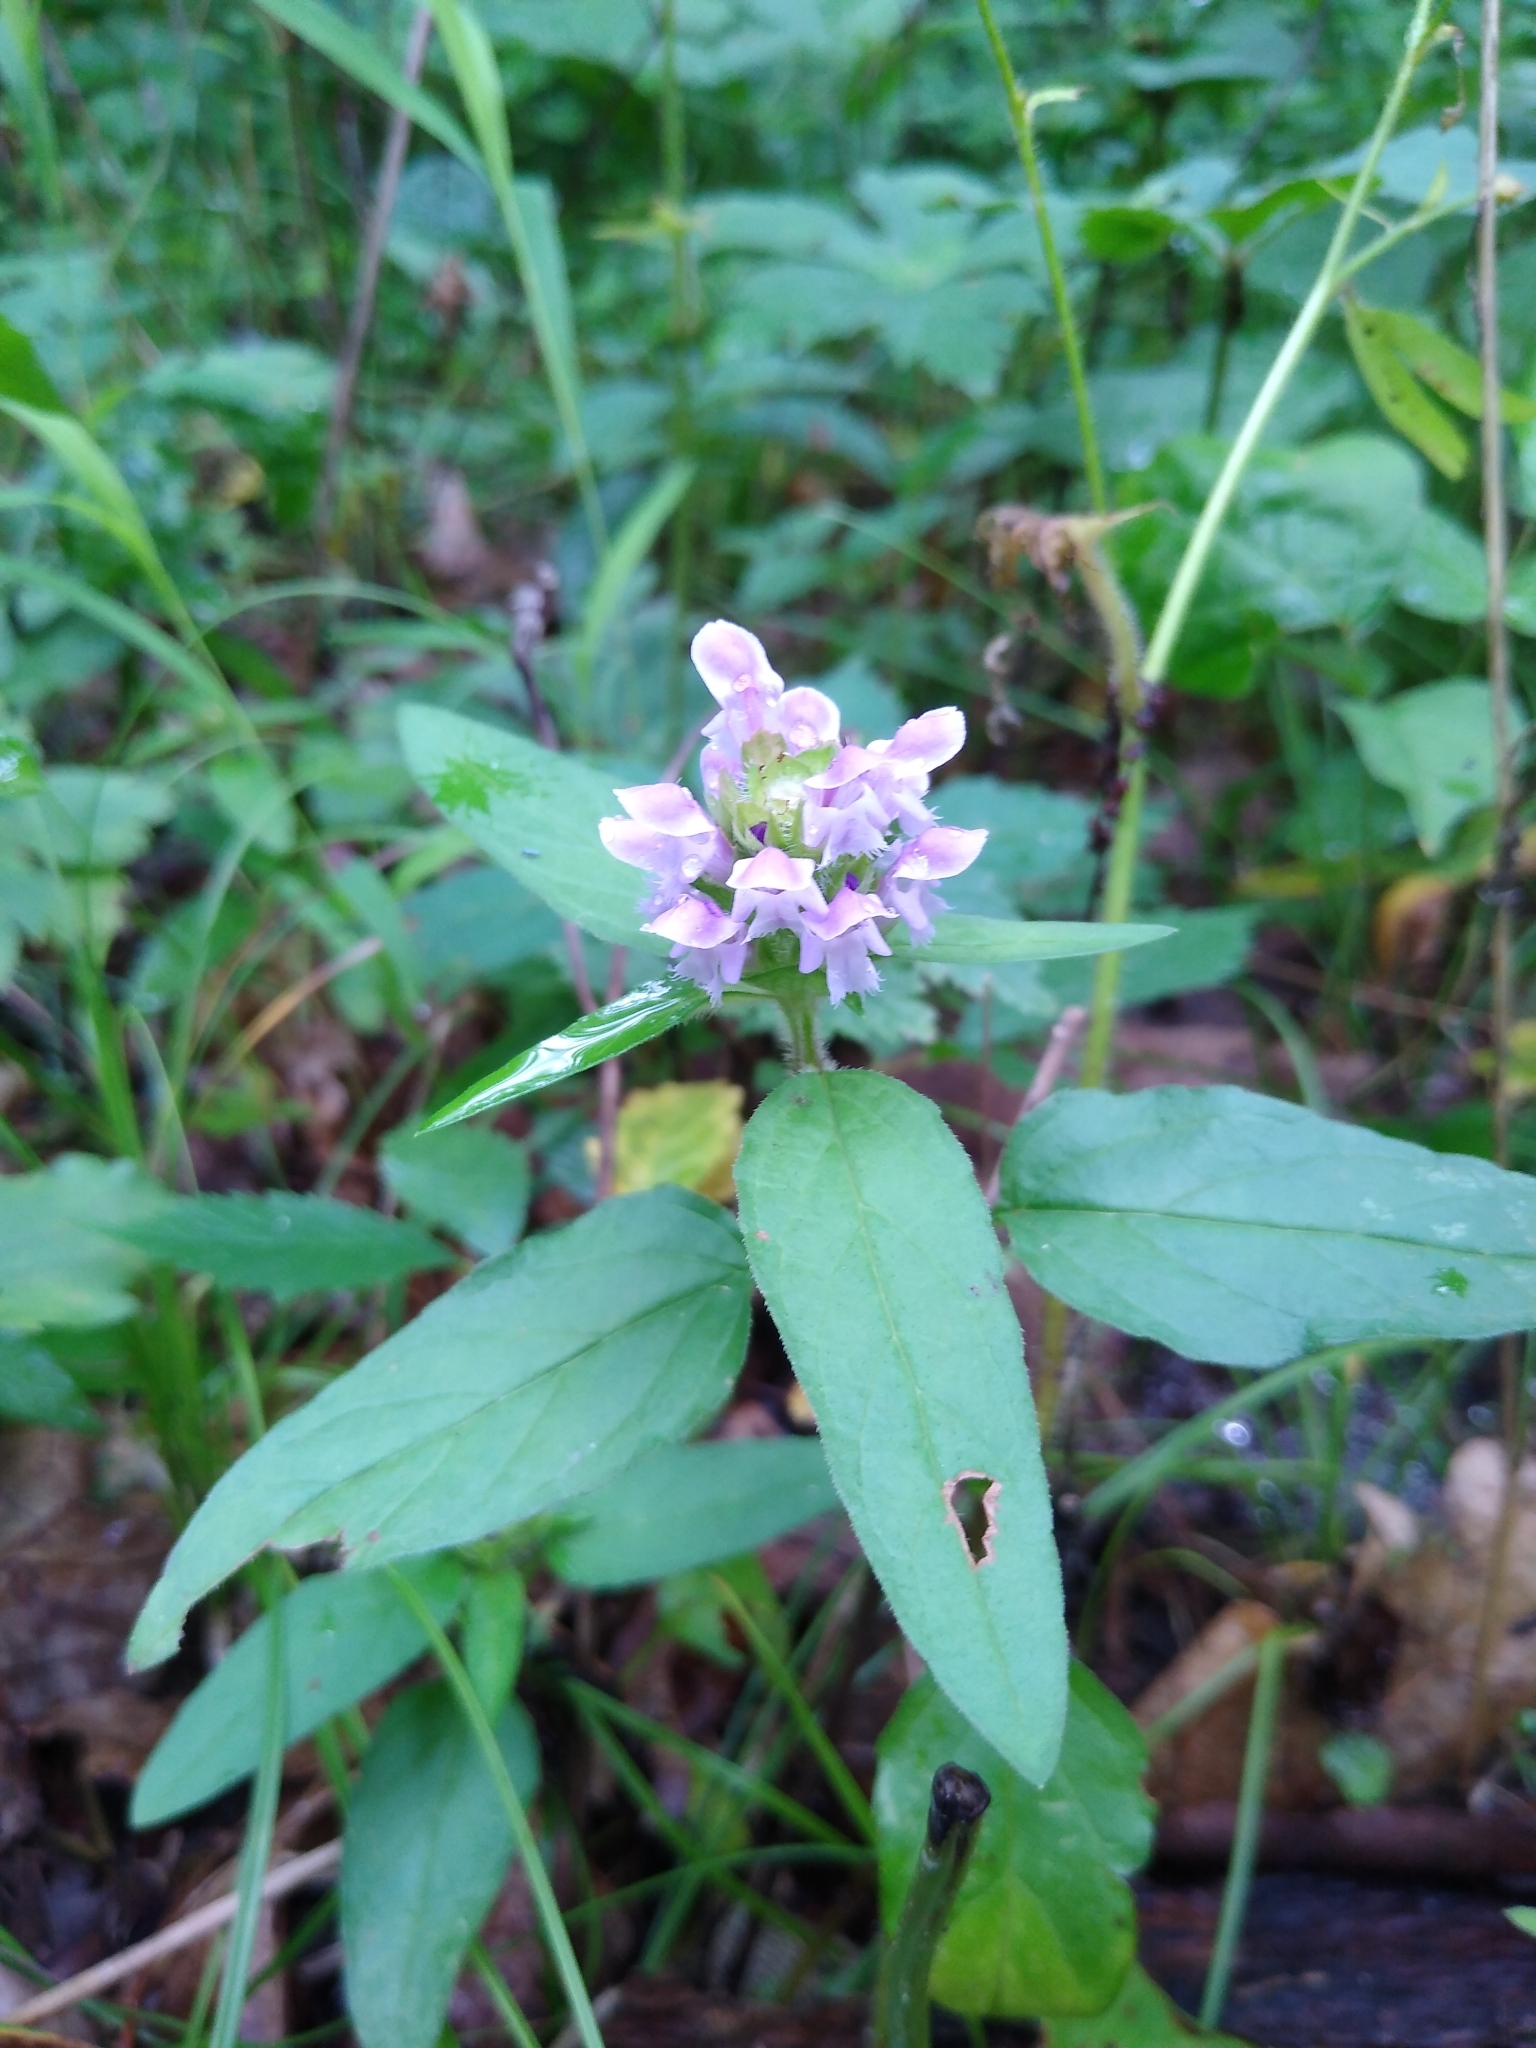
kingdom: Plantae
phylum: Tracheophyta
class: Magnoliopsida
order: Lamiales
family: Lamiaceae
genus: Prunella
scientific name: Prunella vulgaris
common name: Heal-all
